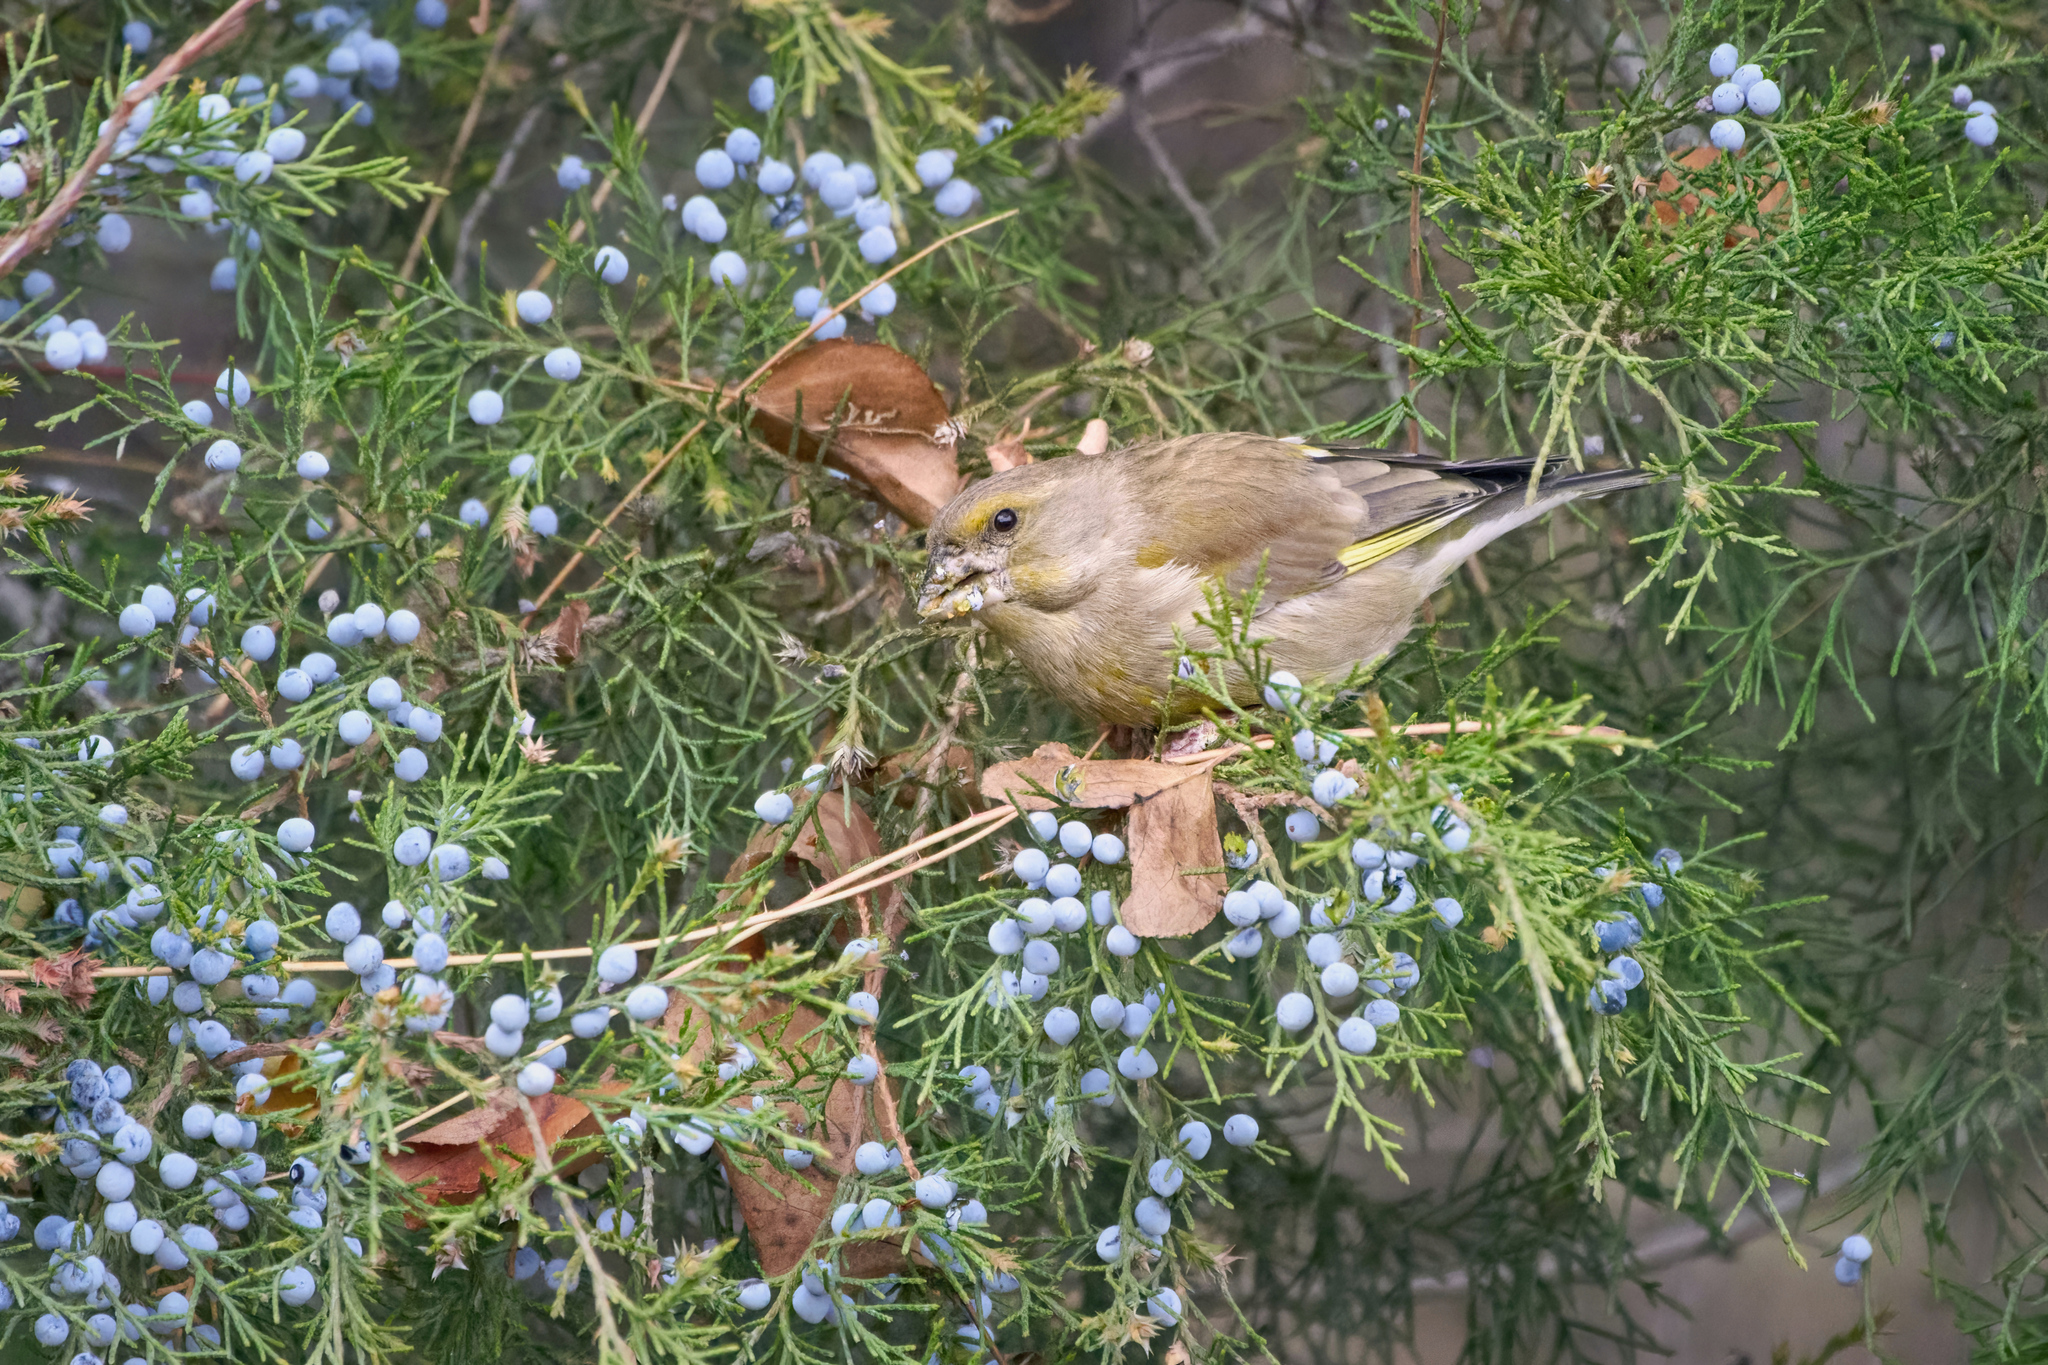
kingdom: Plantae
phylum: Tracheophyta
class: Liliopsida
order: Poales
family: Poaceae
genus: Chloris
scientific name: Chloris chloris
